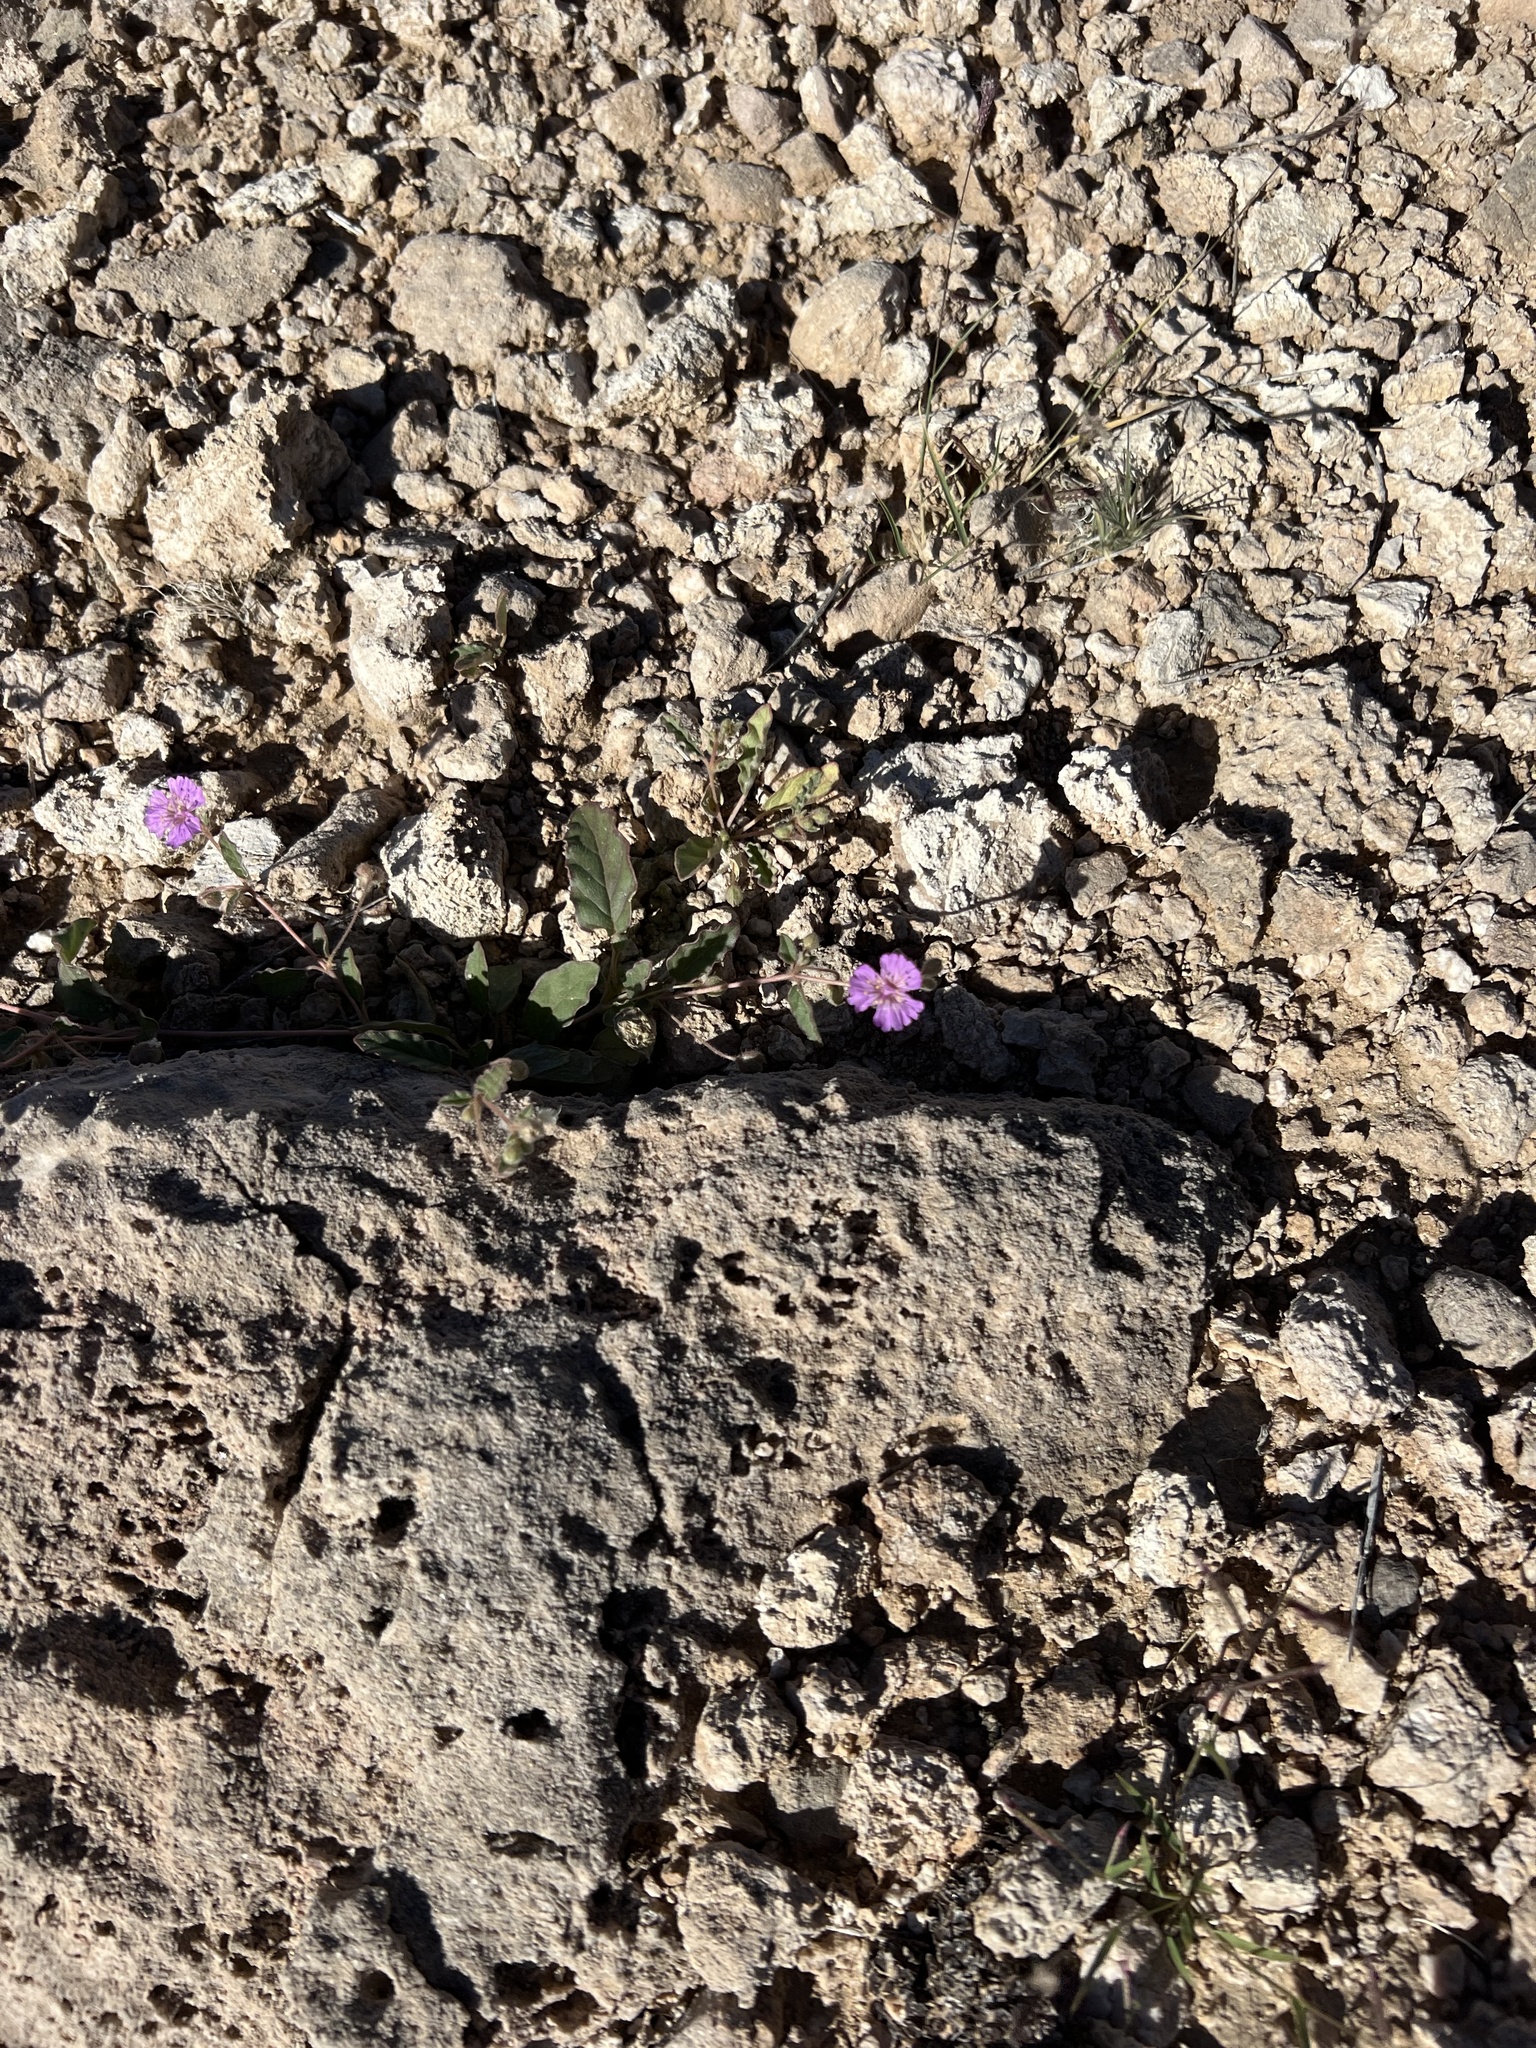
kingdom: Plantae
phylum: Tracheophyta
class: Magnoliopsida
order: Caryophyllales
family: Nyctaginaceae
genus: Allionia
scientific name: Allionia incarnata
